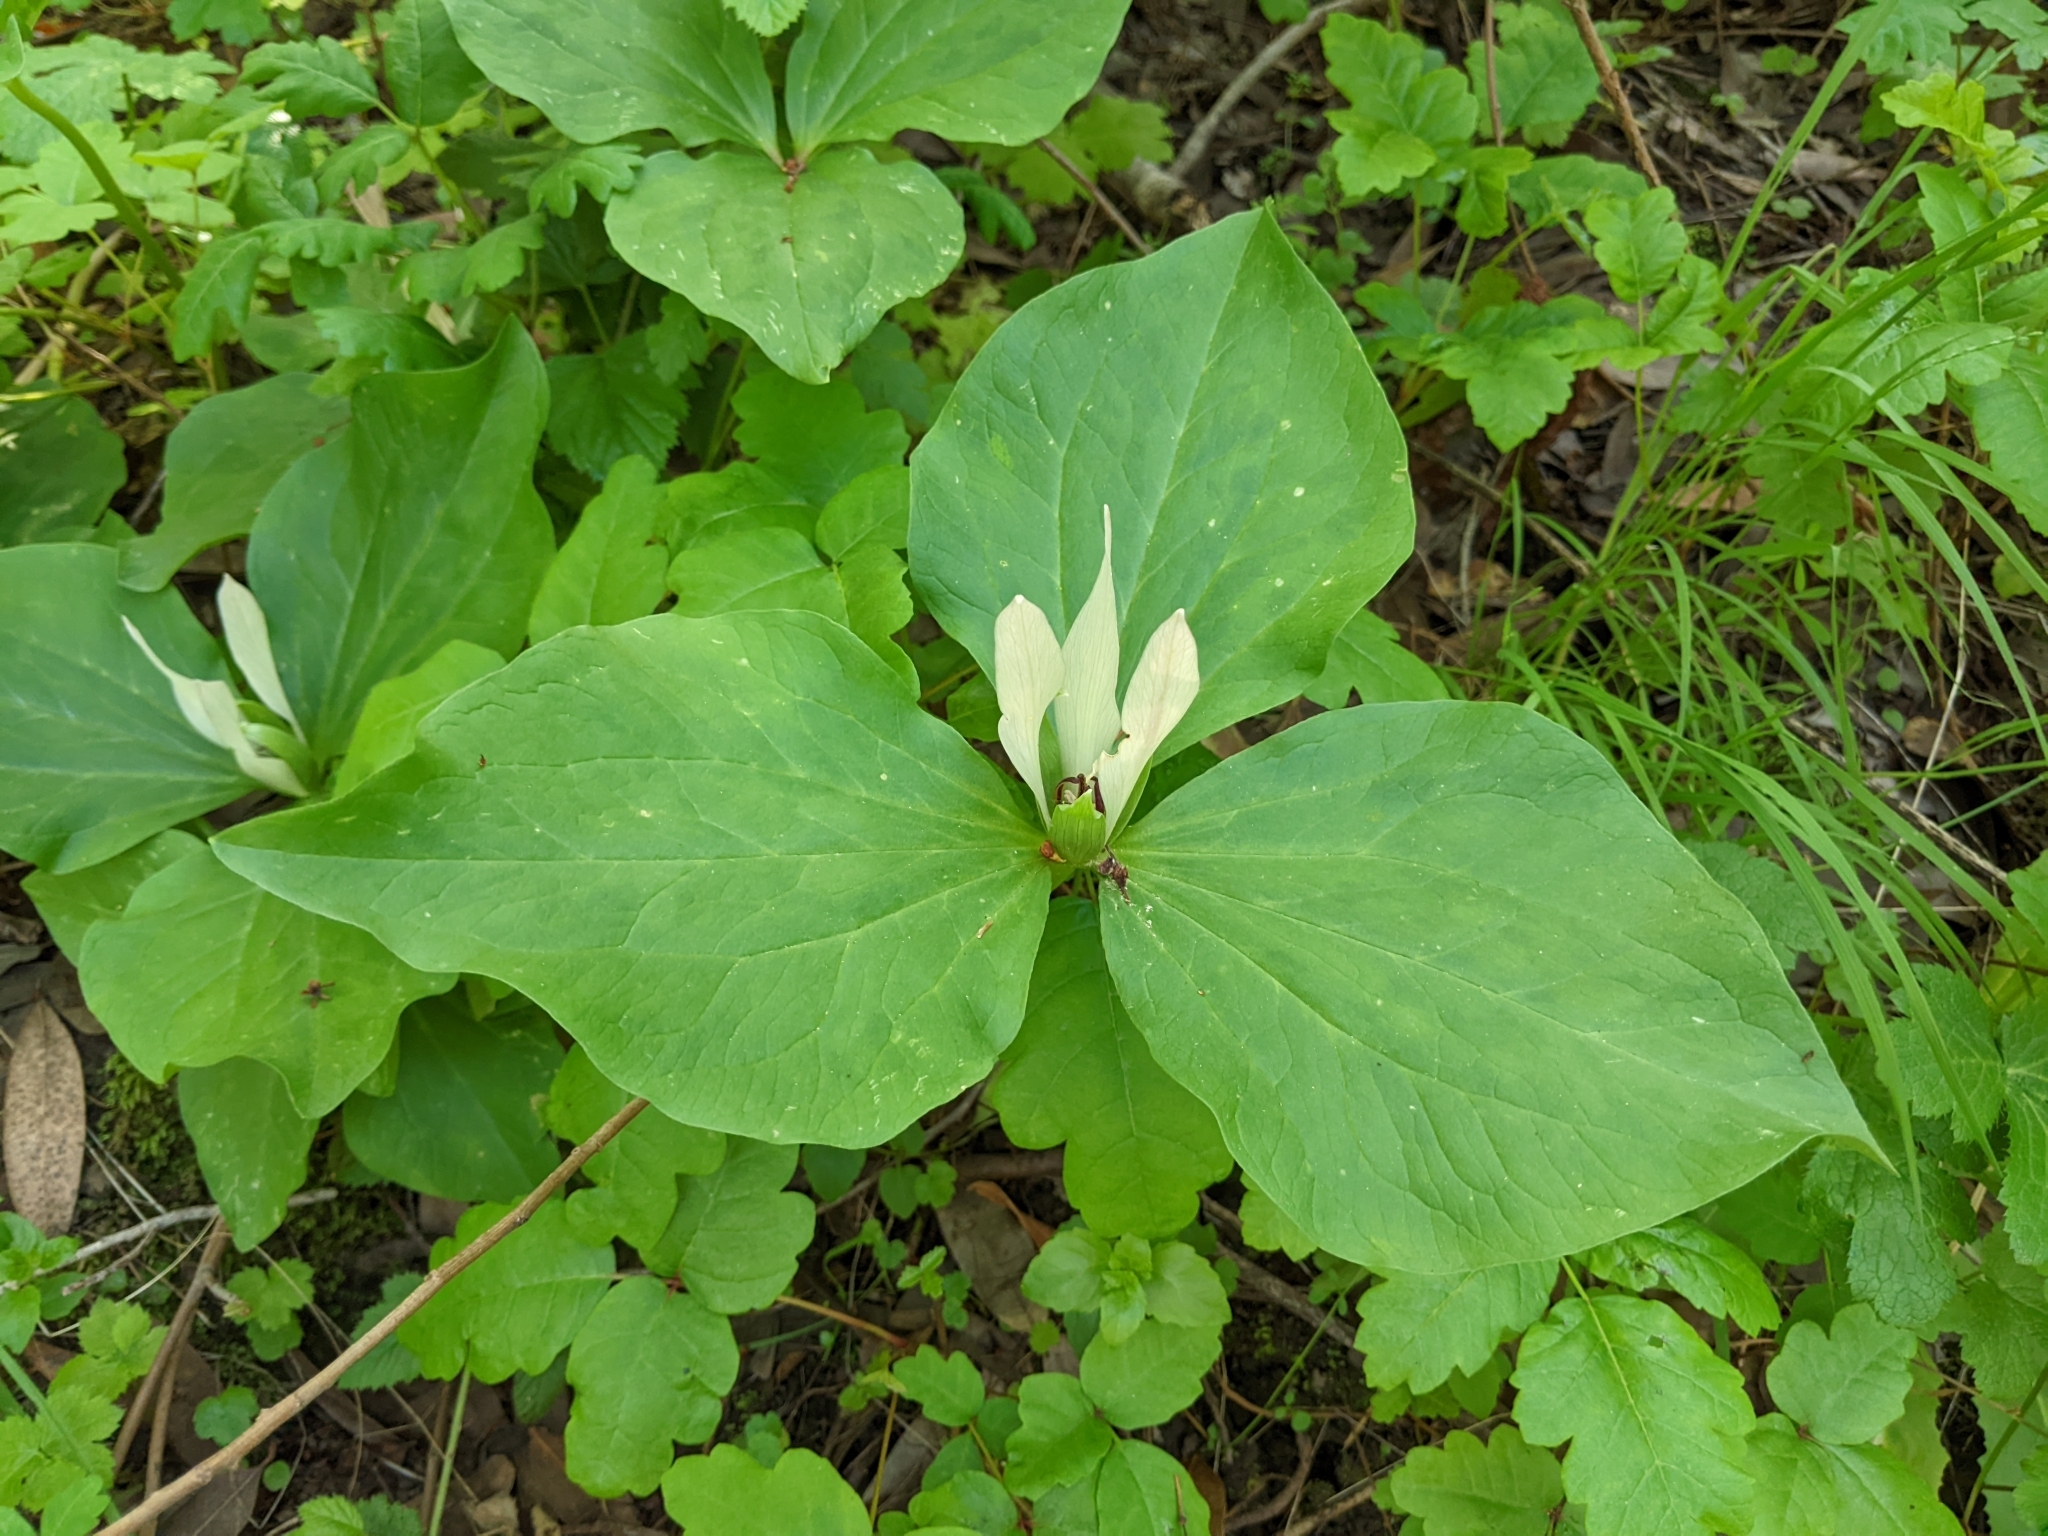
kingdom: Plantae
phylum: Tracheophyta
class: Liliopsida
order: Liliales
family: Melanthiaceae
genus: Trillium
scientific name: Trillium chloropetalum
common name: Giant trillium
